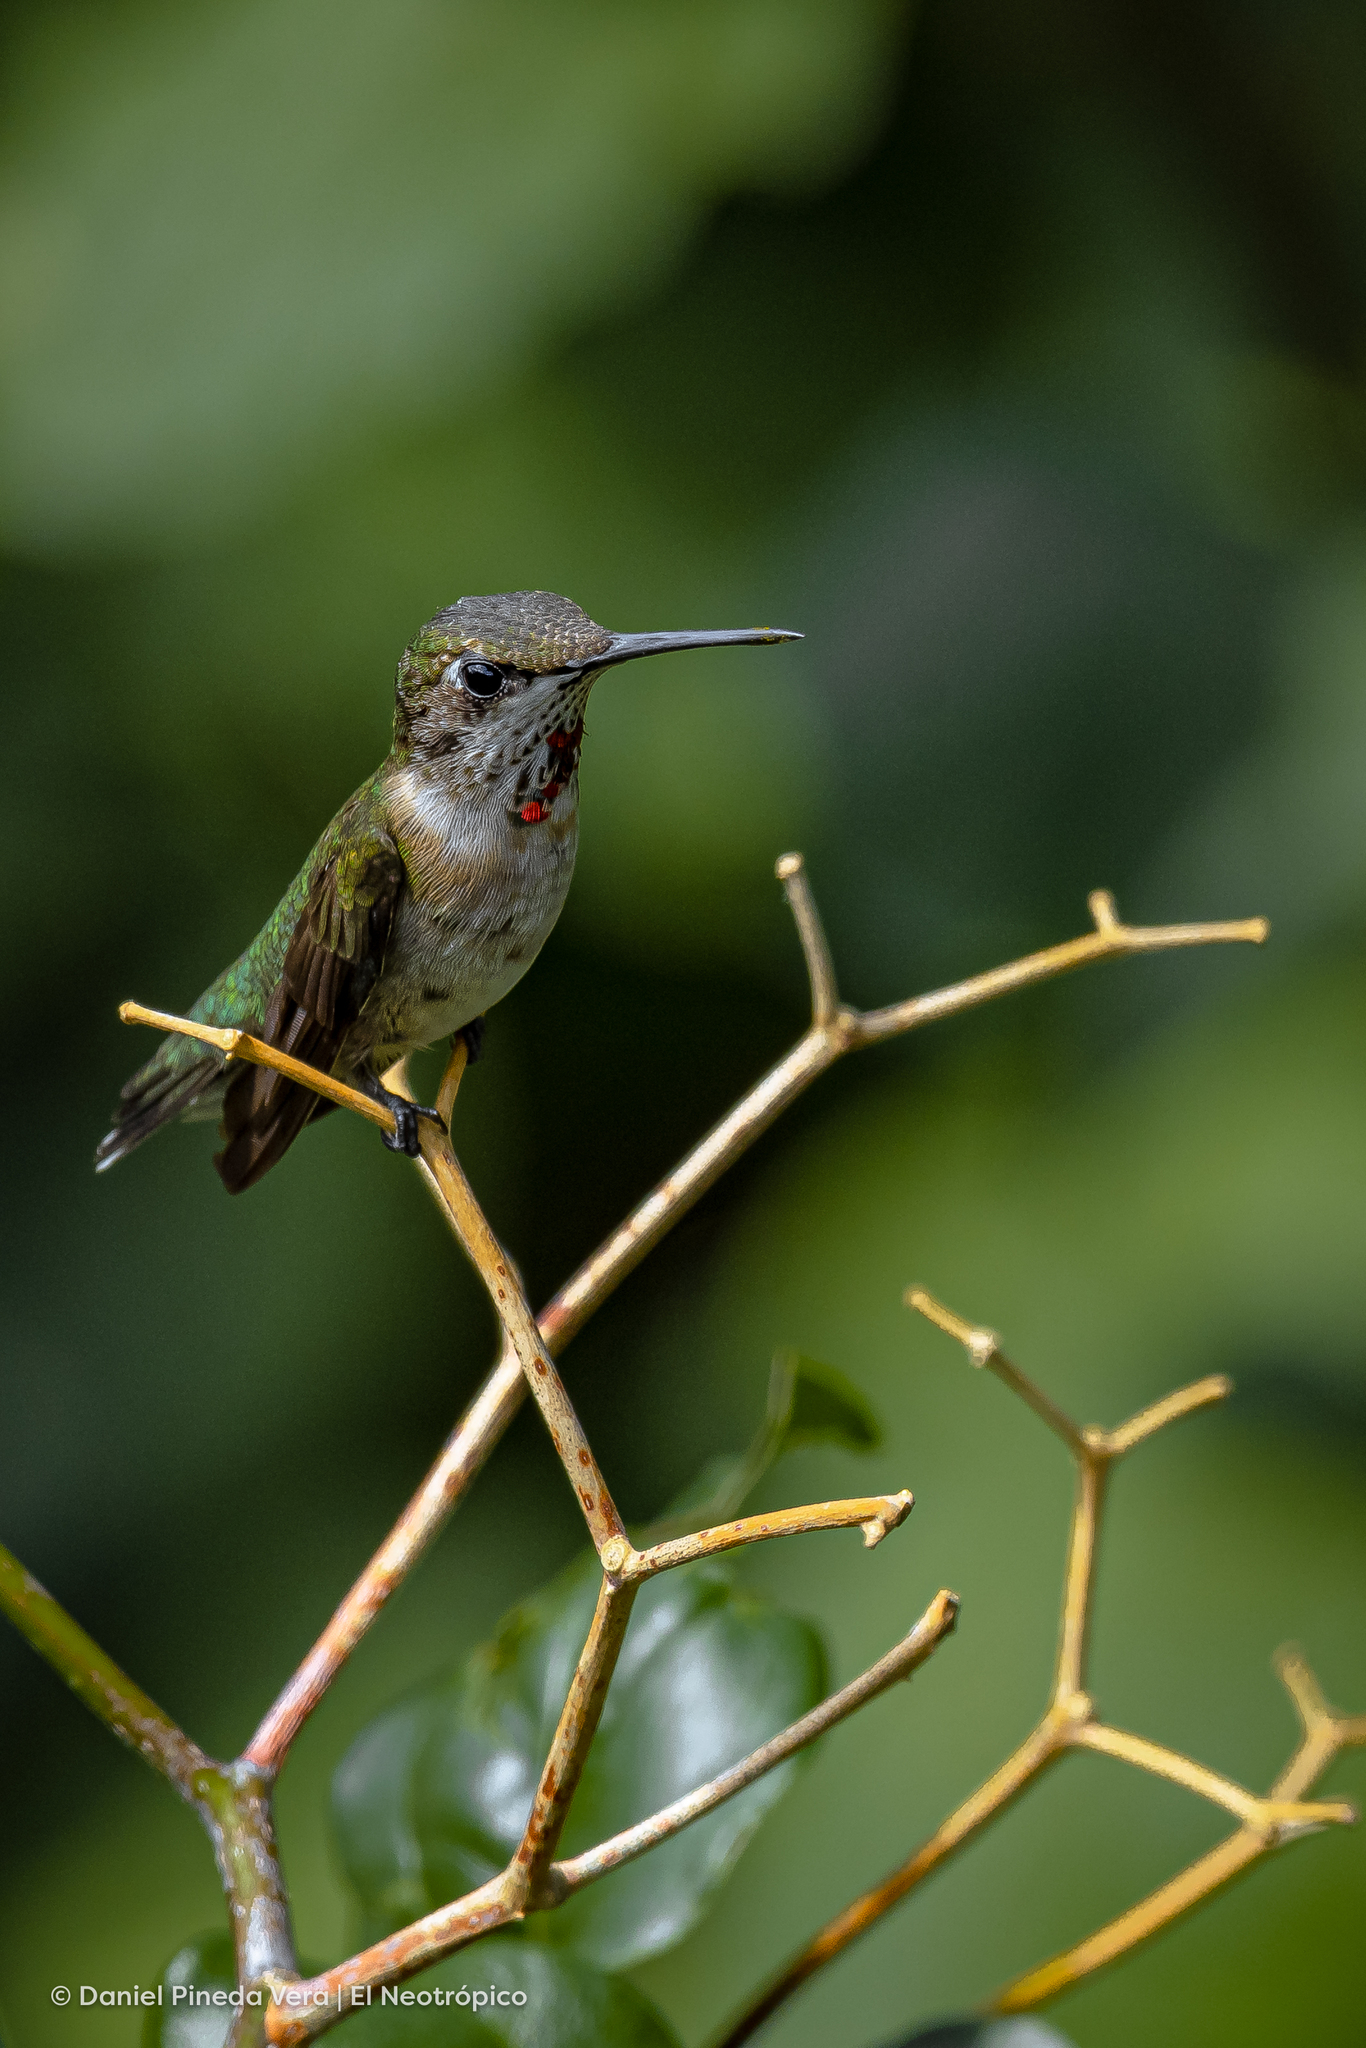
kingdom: Animalia
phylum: Chordata
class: Aves
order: Apodiformes
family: Trochilidae
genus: Archilochus
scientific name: Archilochus colubris
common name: Ruby-throated hummingbird
